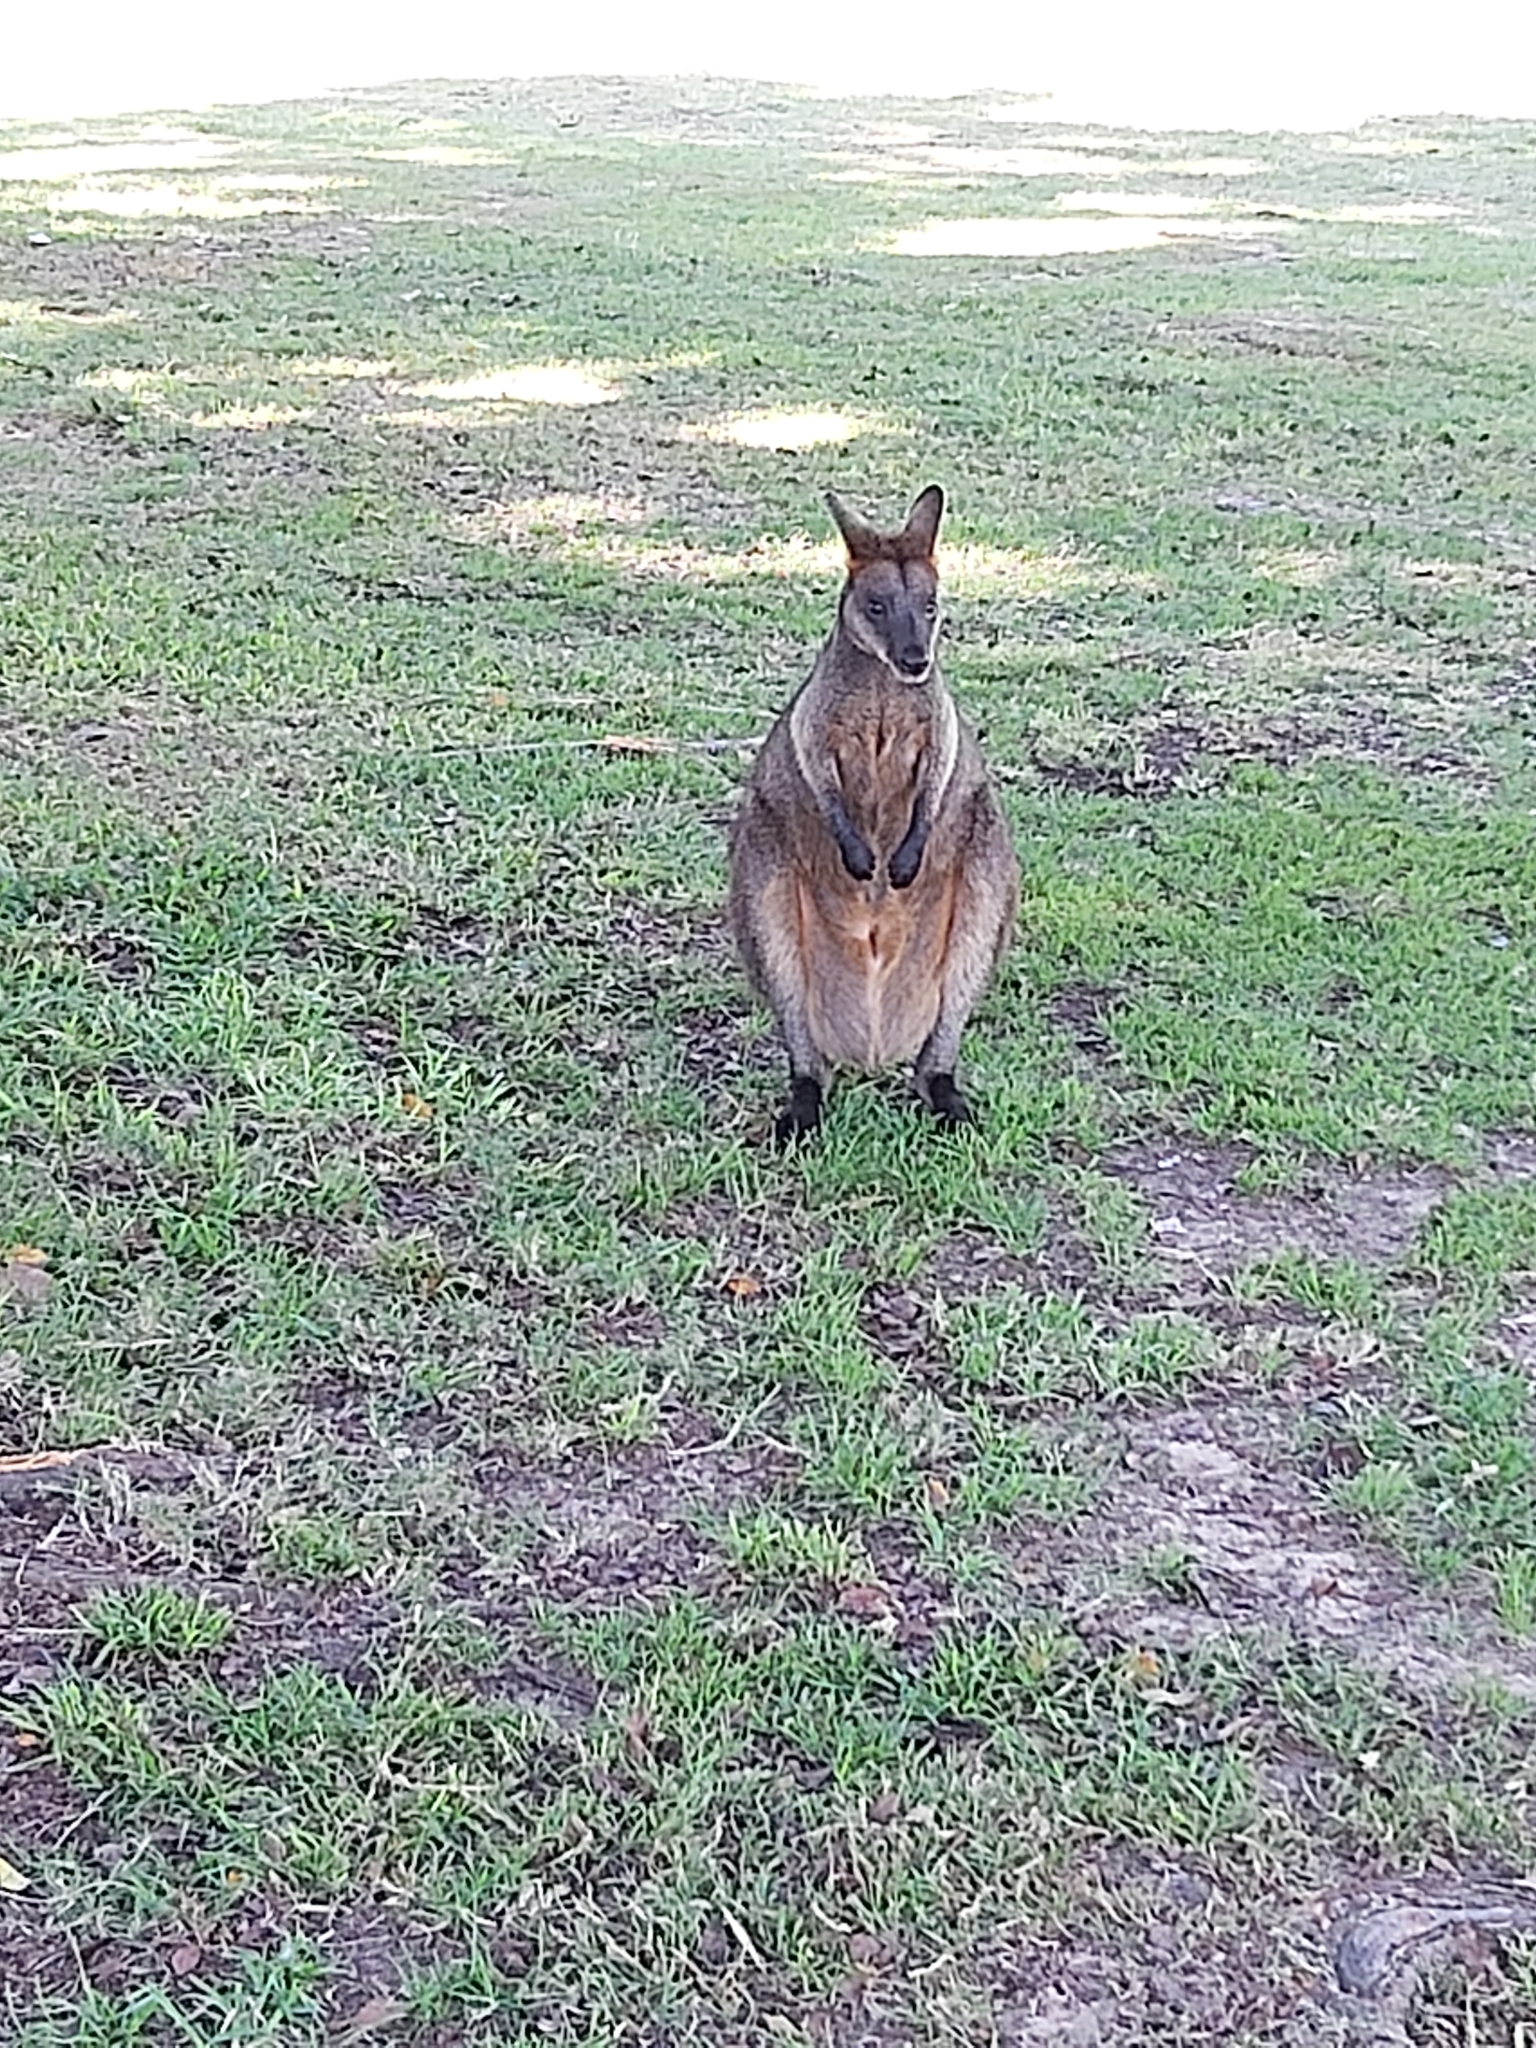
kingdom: Animalia
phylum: Chordata
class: Mammalia
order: Diprotodontia
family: Macropodidae
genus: Wallabia
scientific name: Wallabia bicolor
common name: Swamp wallaby
